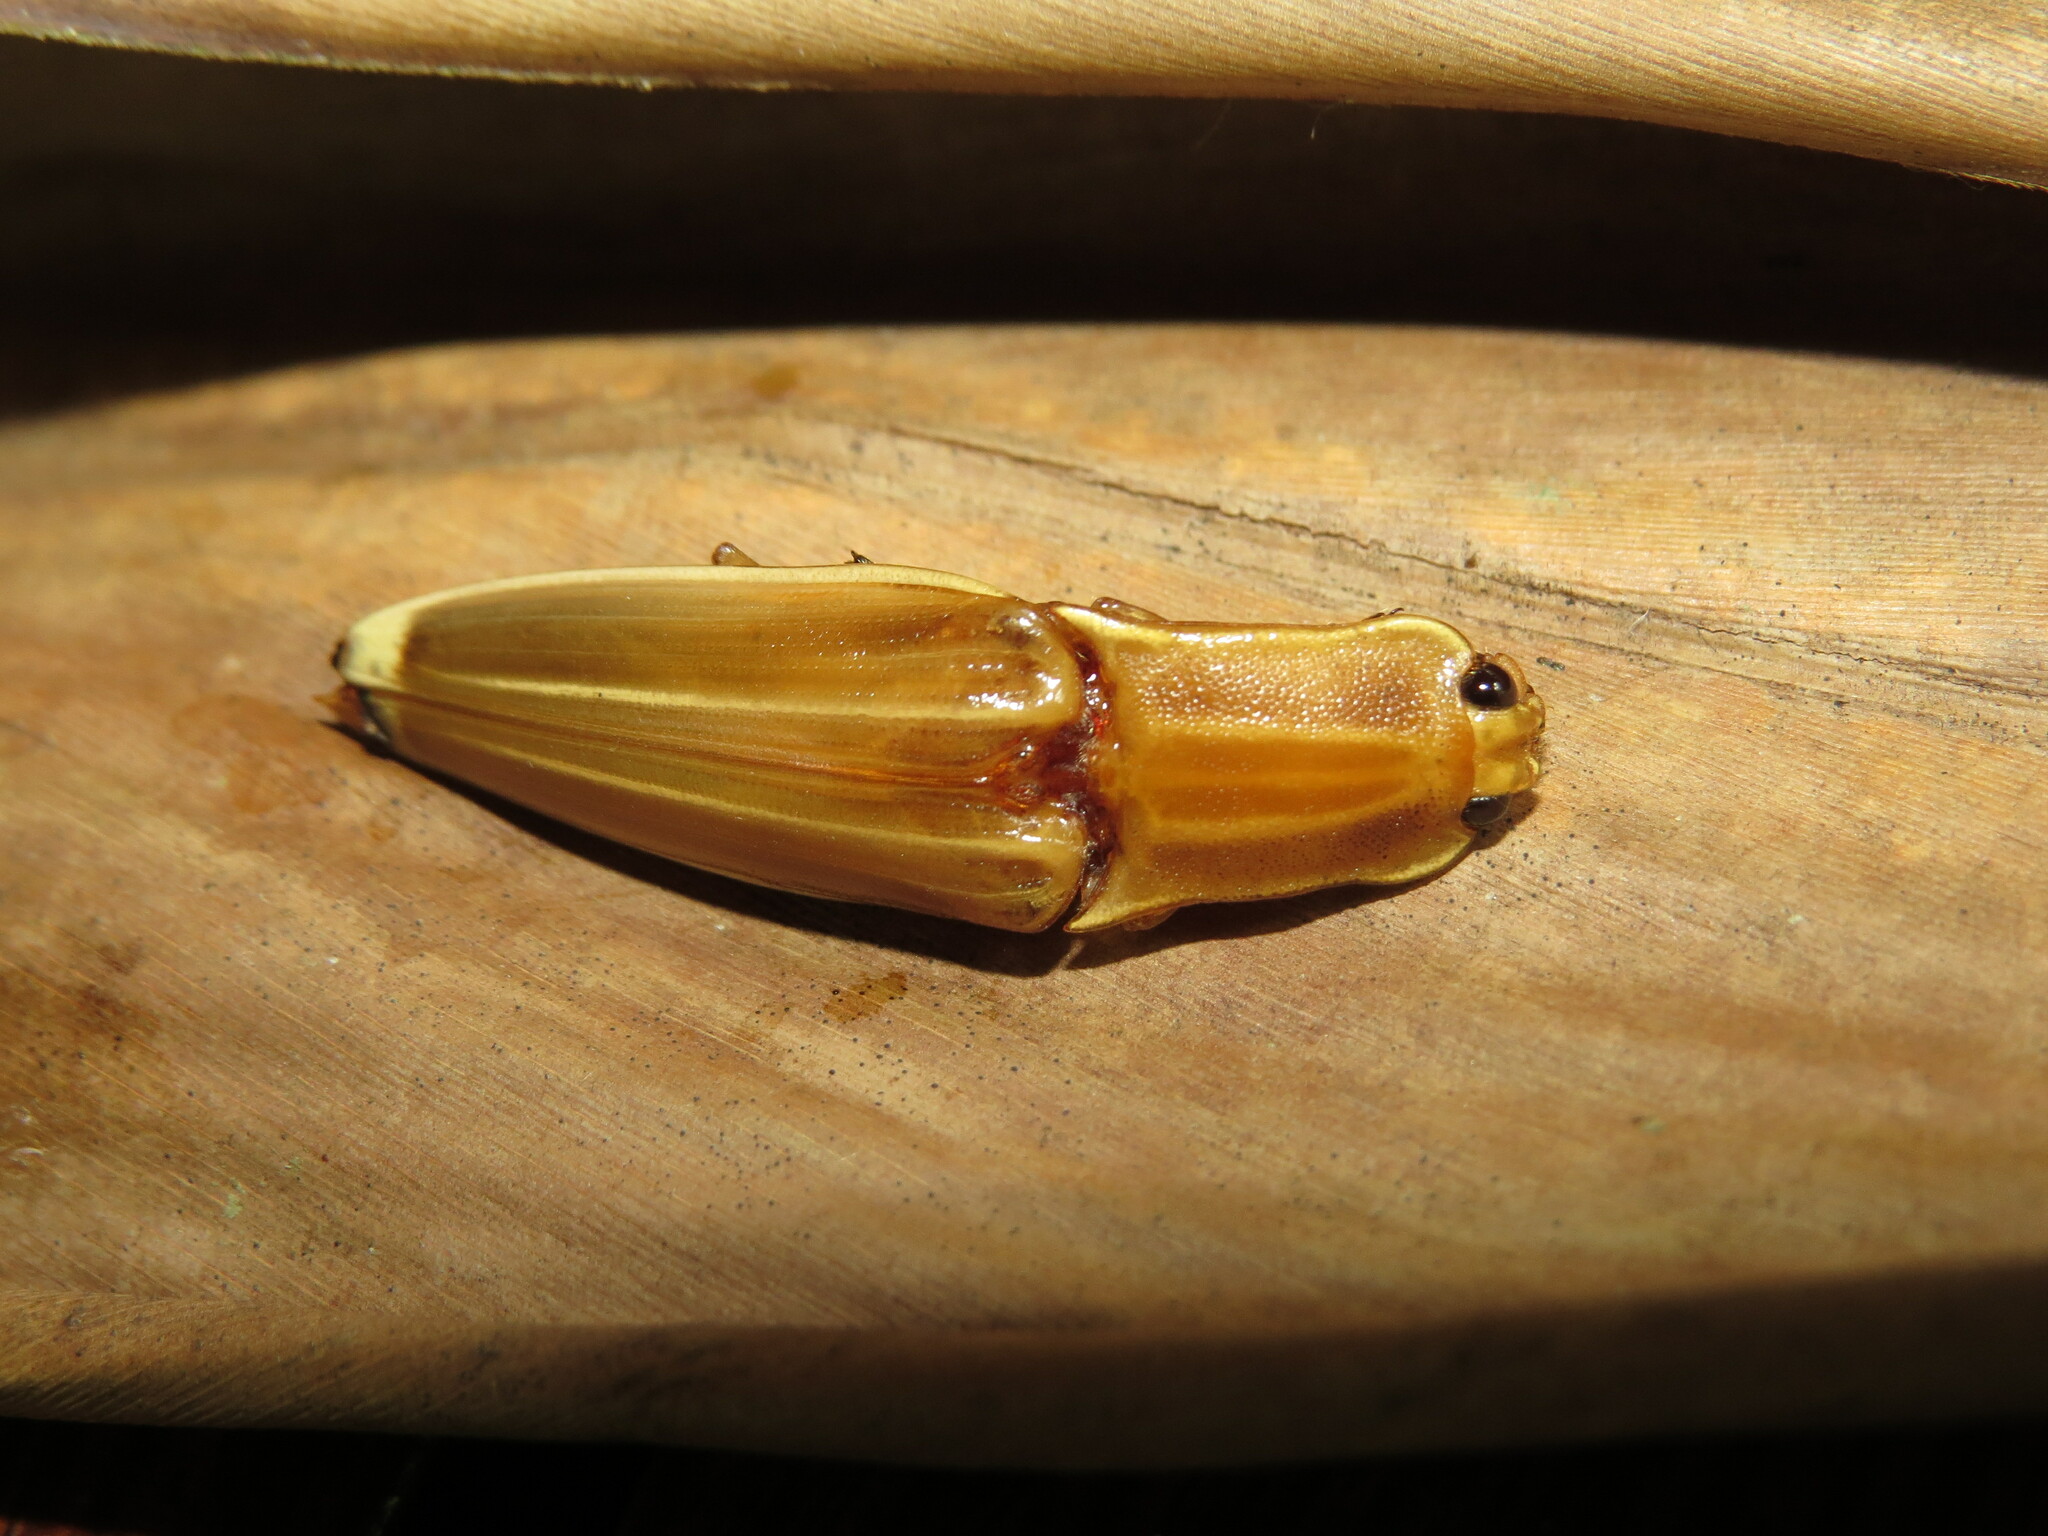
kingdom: Animalia
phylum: Arthropoda
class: Insecta
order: Coleoptera
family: Elateridae
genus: Semiotus
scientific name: Semiotus ligneus
